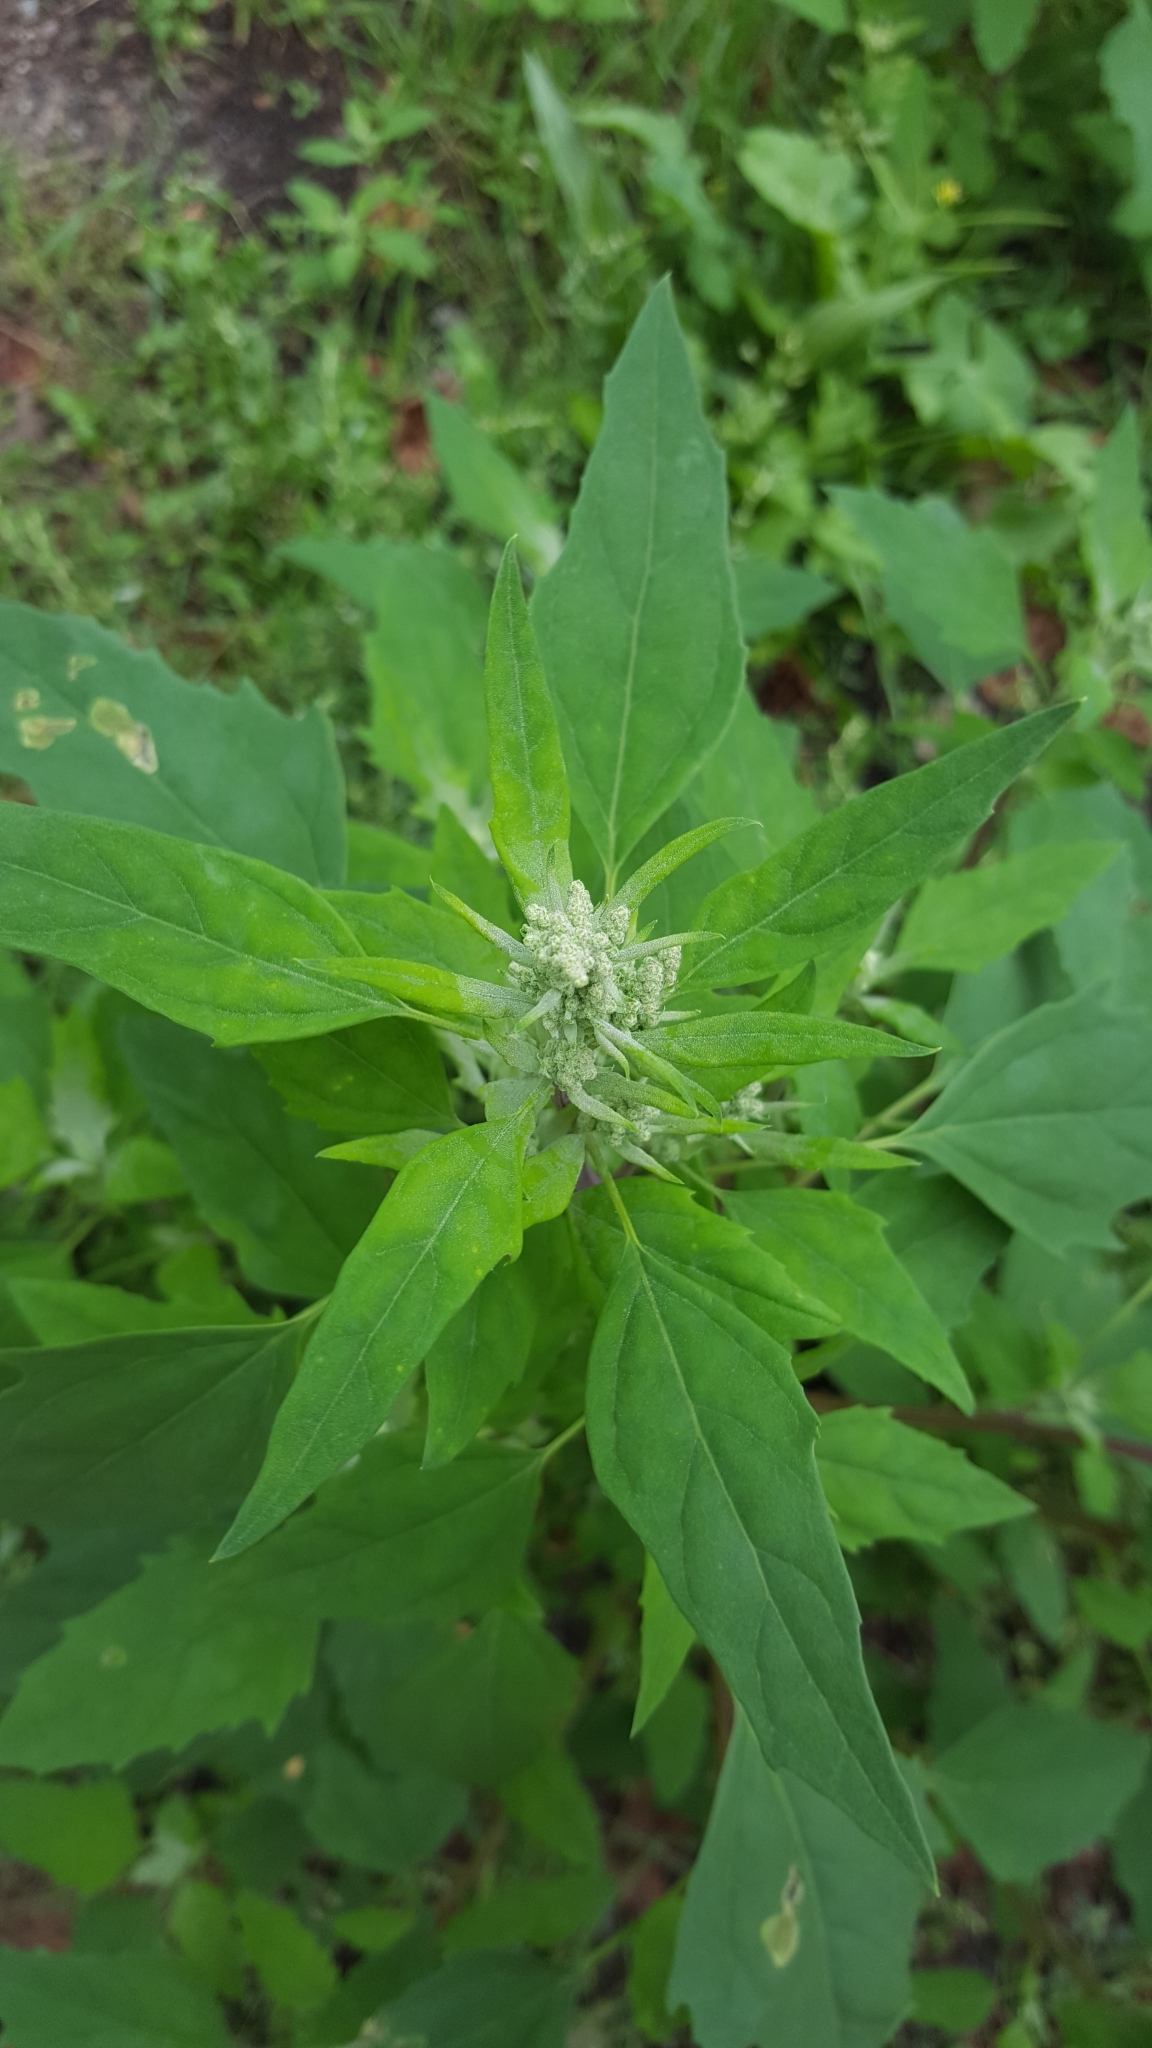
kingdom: Plantae
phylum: Tracheophyta
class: Magnoliopsida
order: Caryophyllales
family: Amaranthaceae
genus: Chenopodium
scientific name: Chenopodium album
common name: Fat-hen
